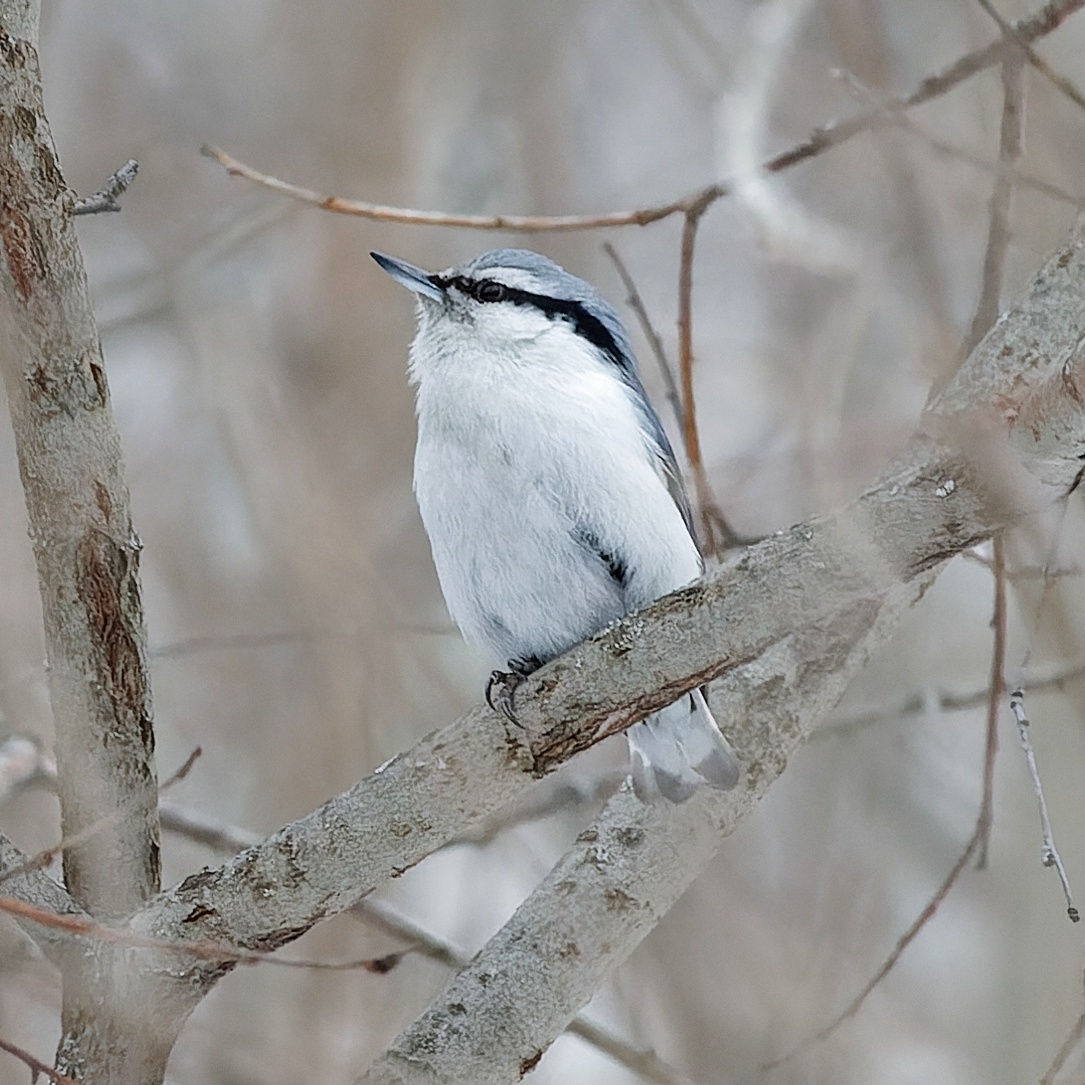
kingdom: Animalia
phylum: Chordata
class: Aves
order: Passeriformes
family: Sittidae
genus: Sitta
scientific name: Sitta europaea
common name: Eurasian nuthatch
